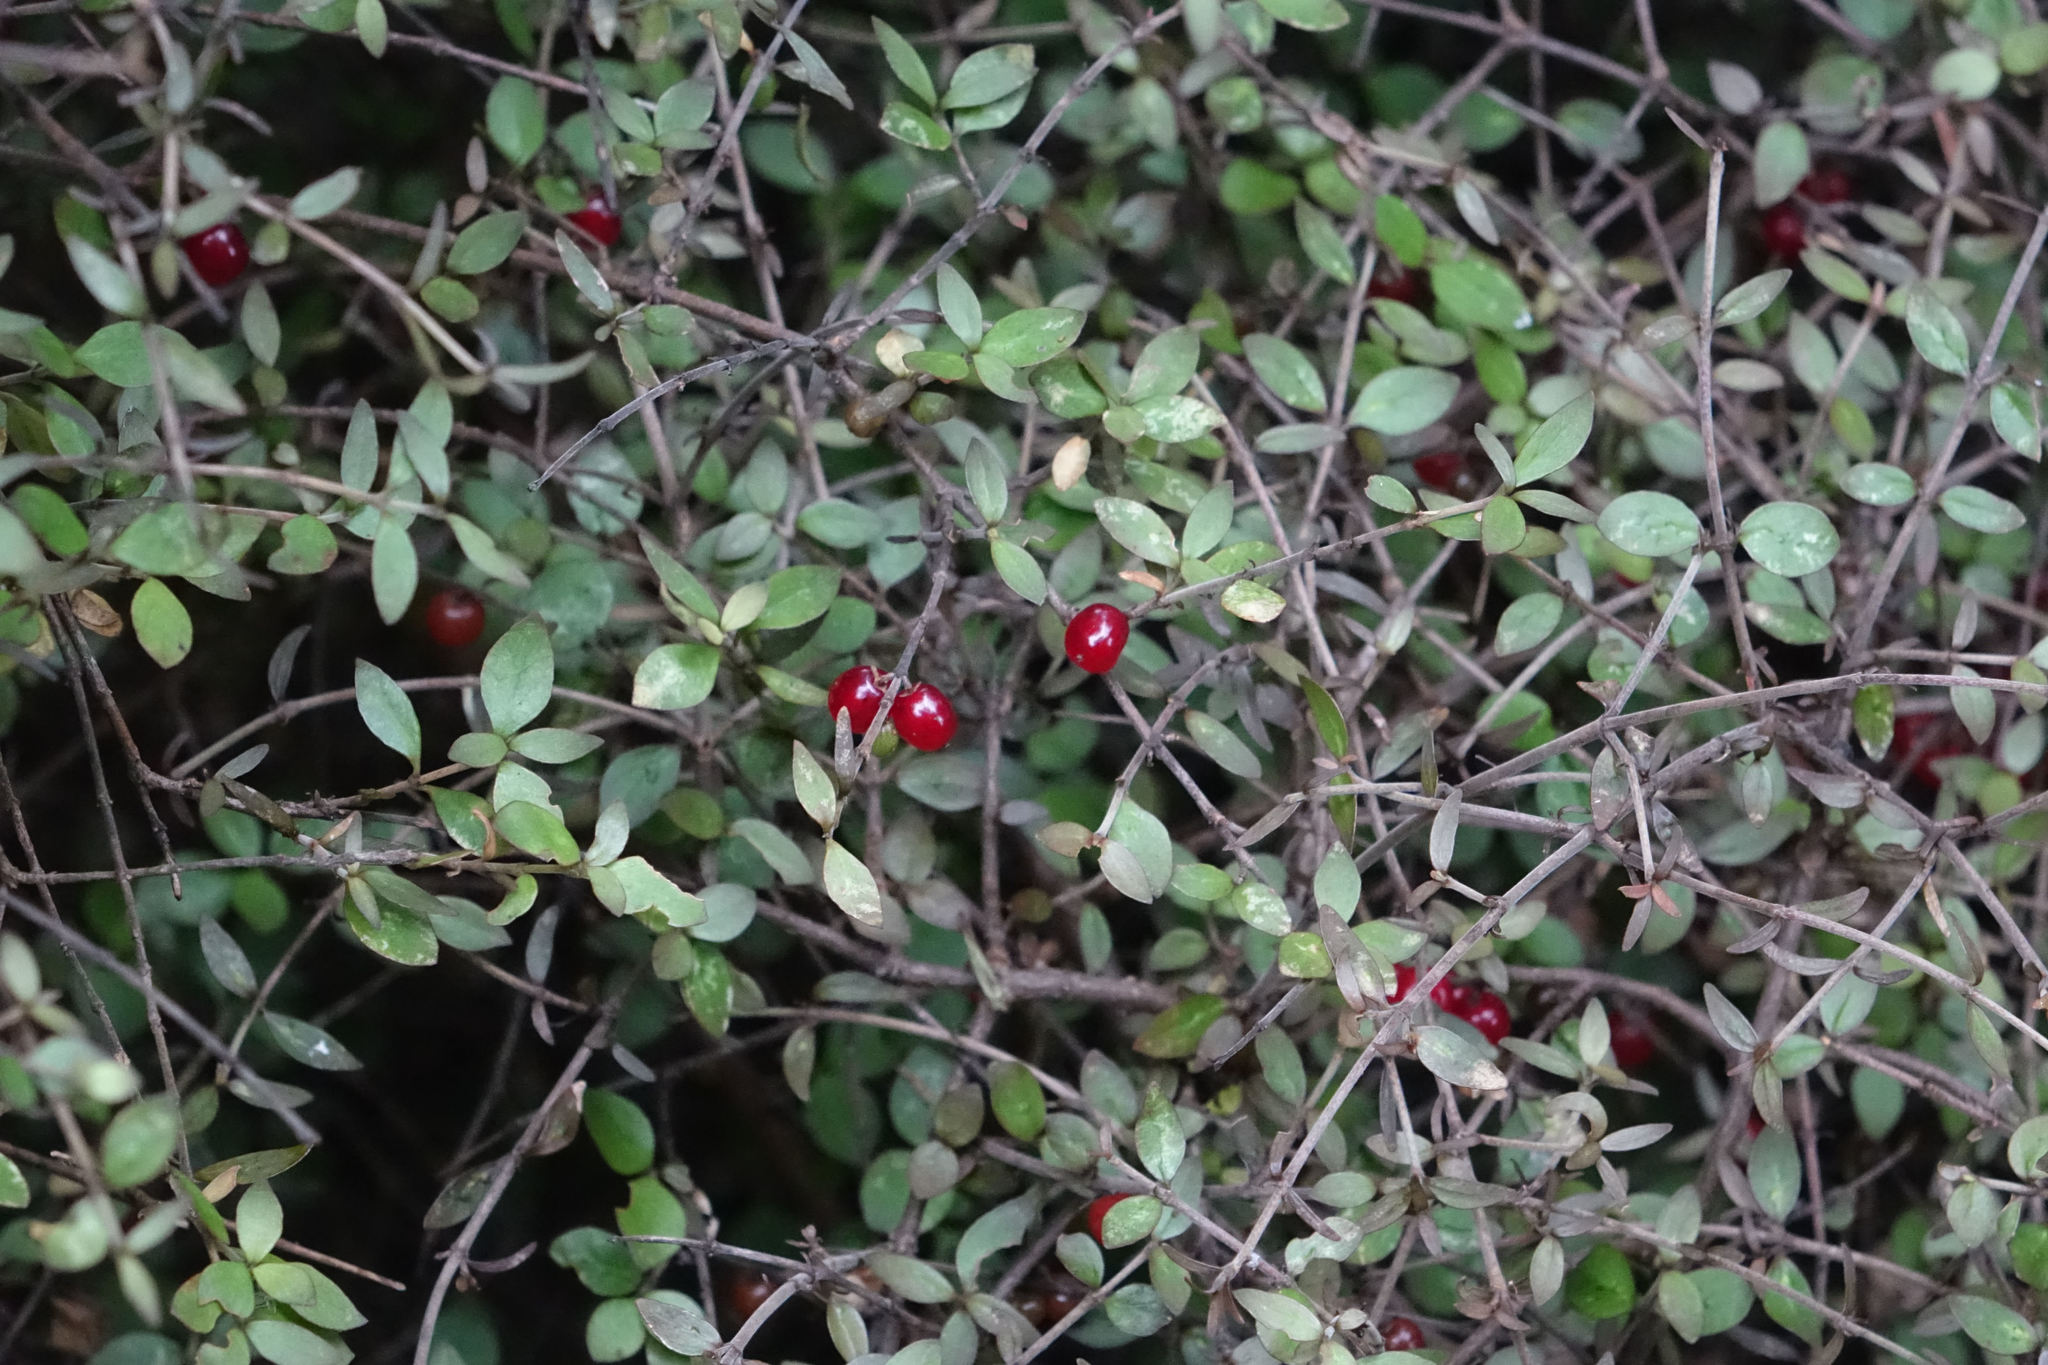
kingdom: Plantae
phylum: Tracheophyta
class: Magnoliopsida
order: Gentianales
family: Rubiaceae
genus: Coprosma
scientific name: Coprosma rhamnoides
